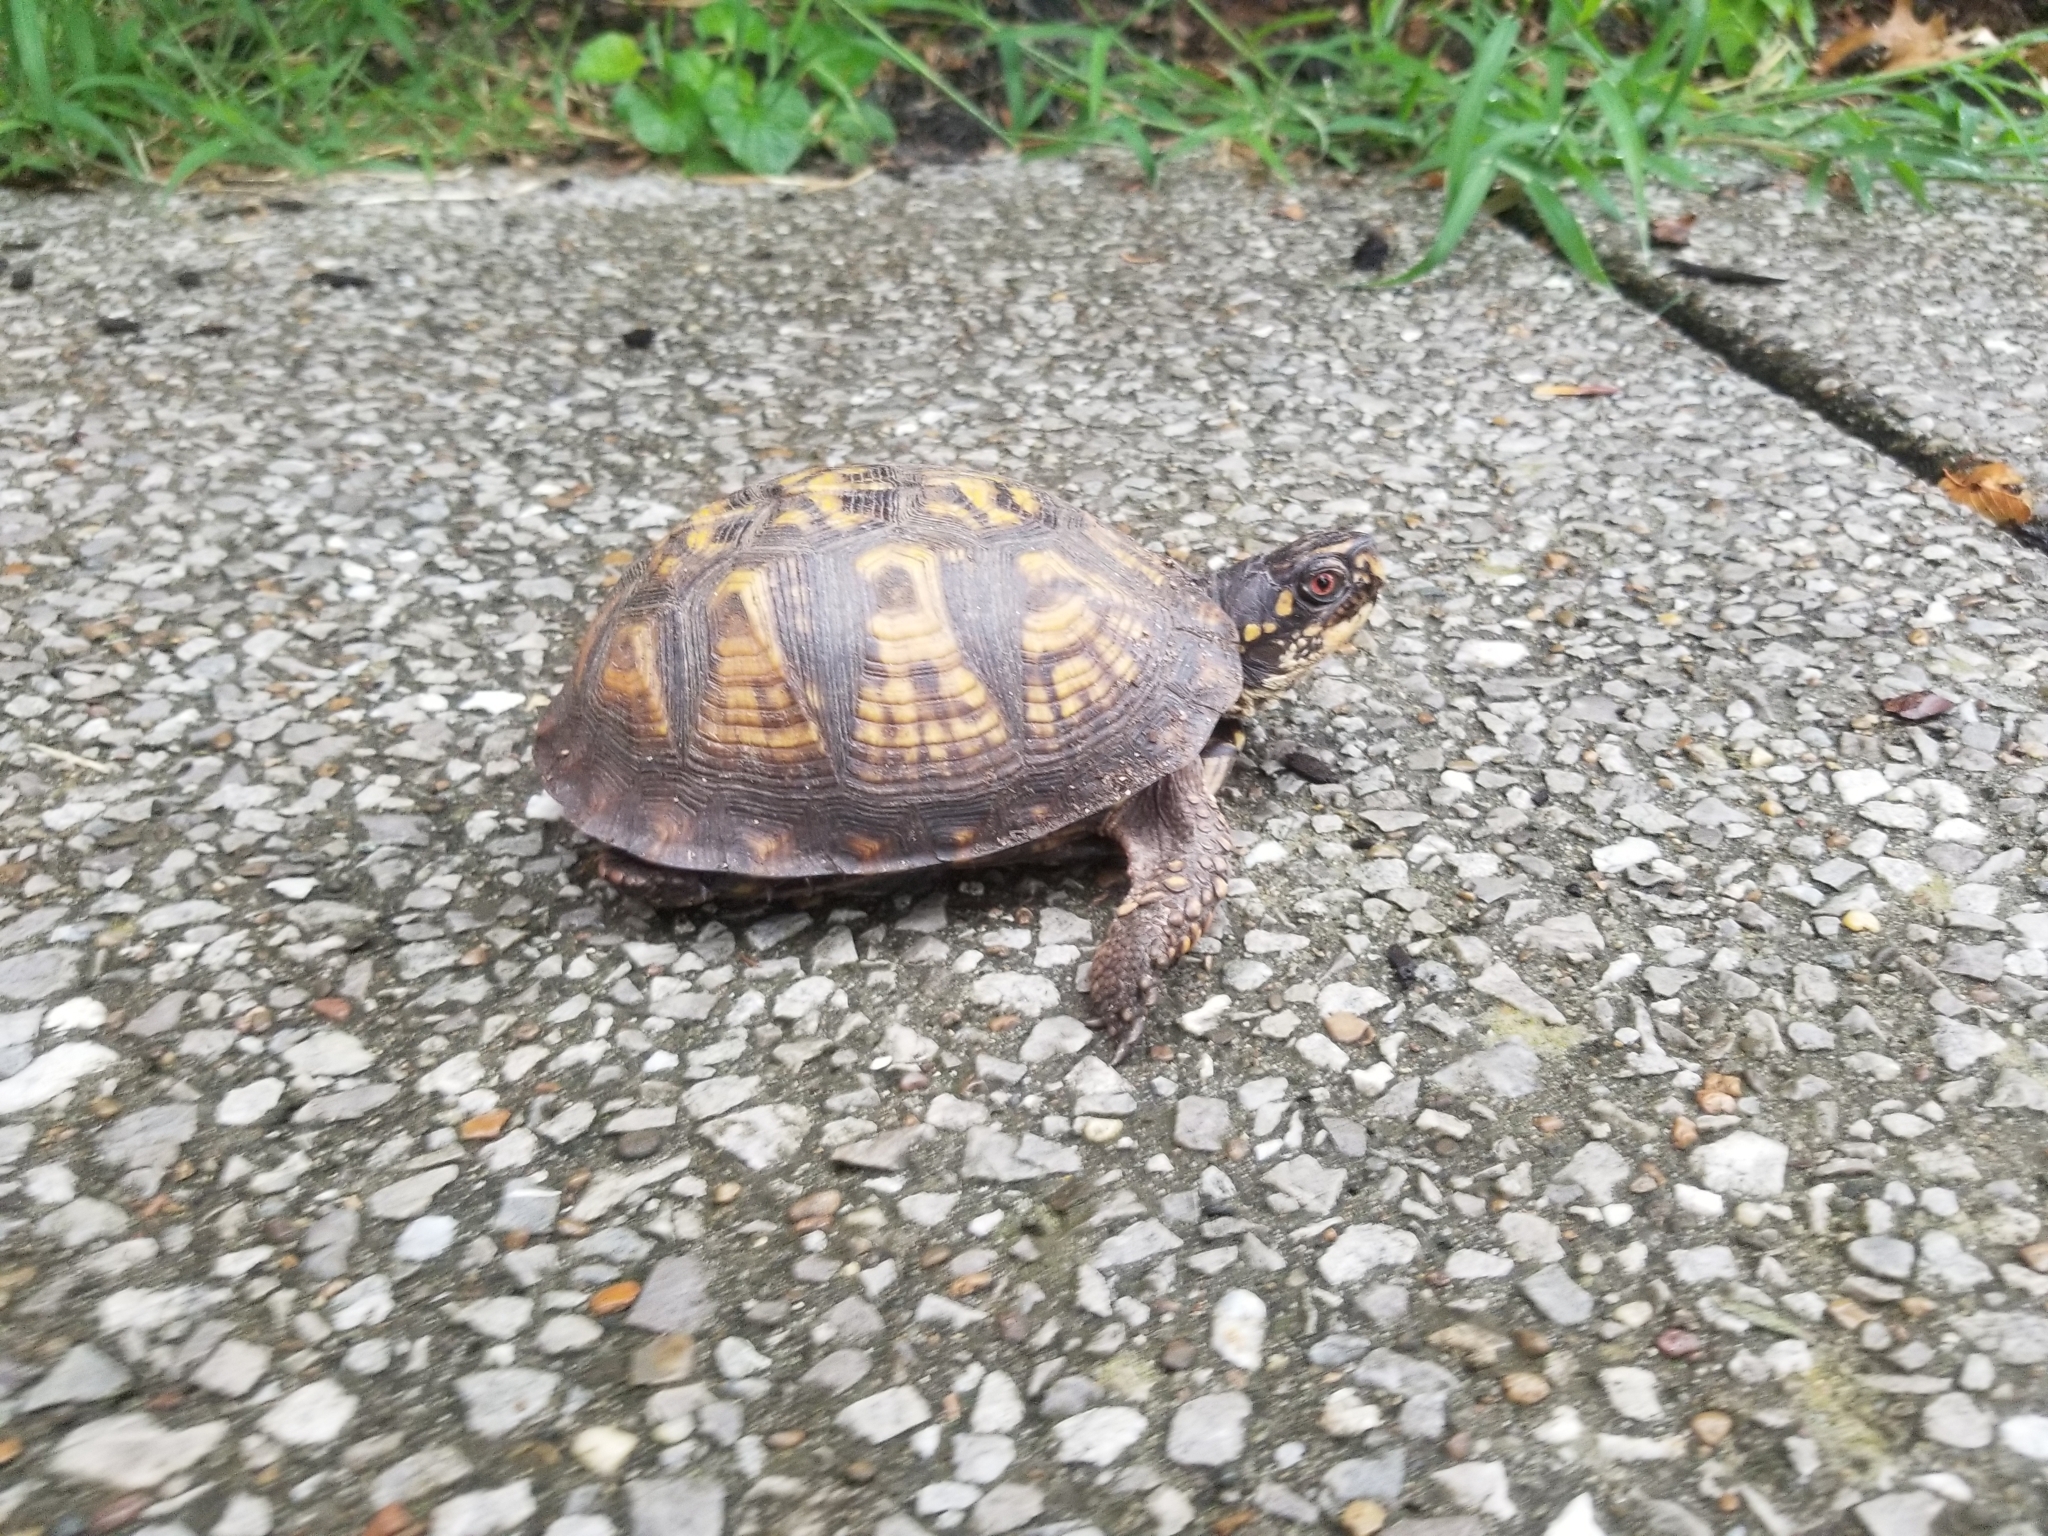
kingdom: Animalia
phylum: Chordata
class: Testudines
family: Emydidae
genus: Terrapene
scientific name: Terrapene carolina
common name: Common box turtle
